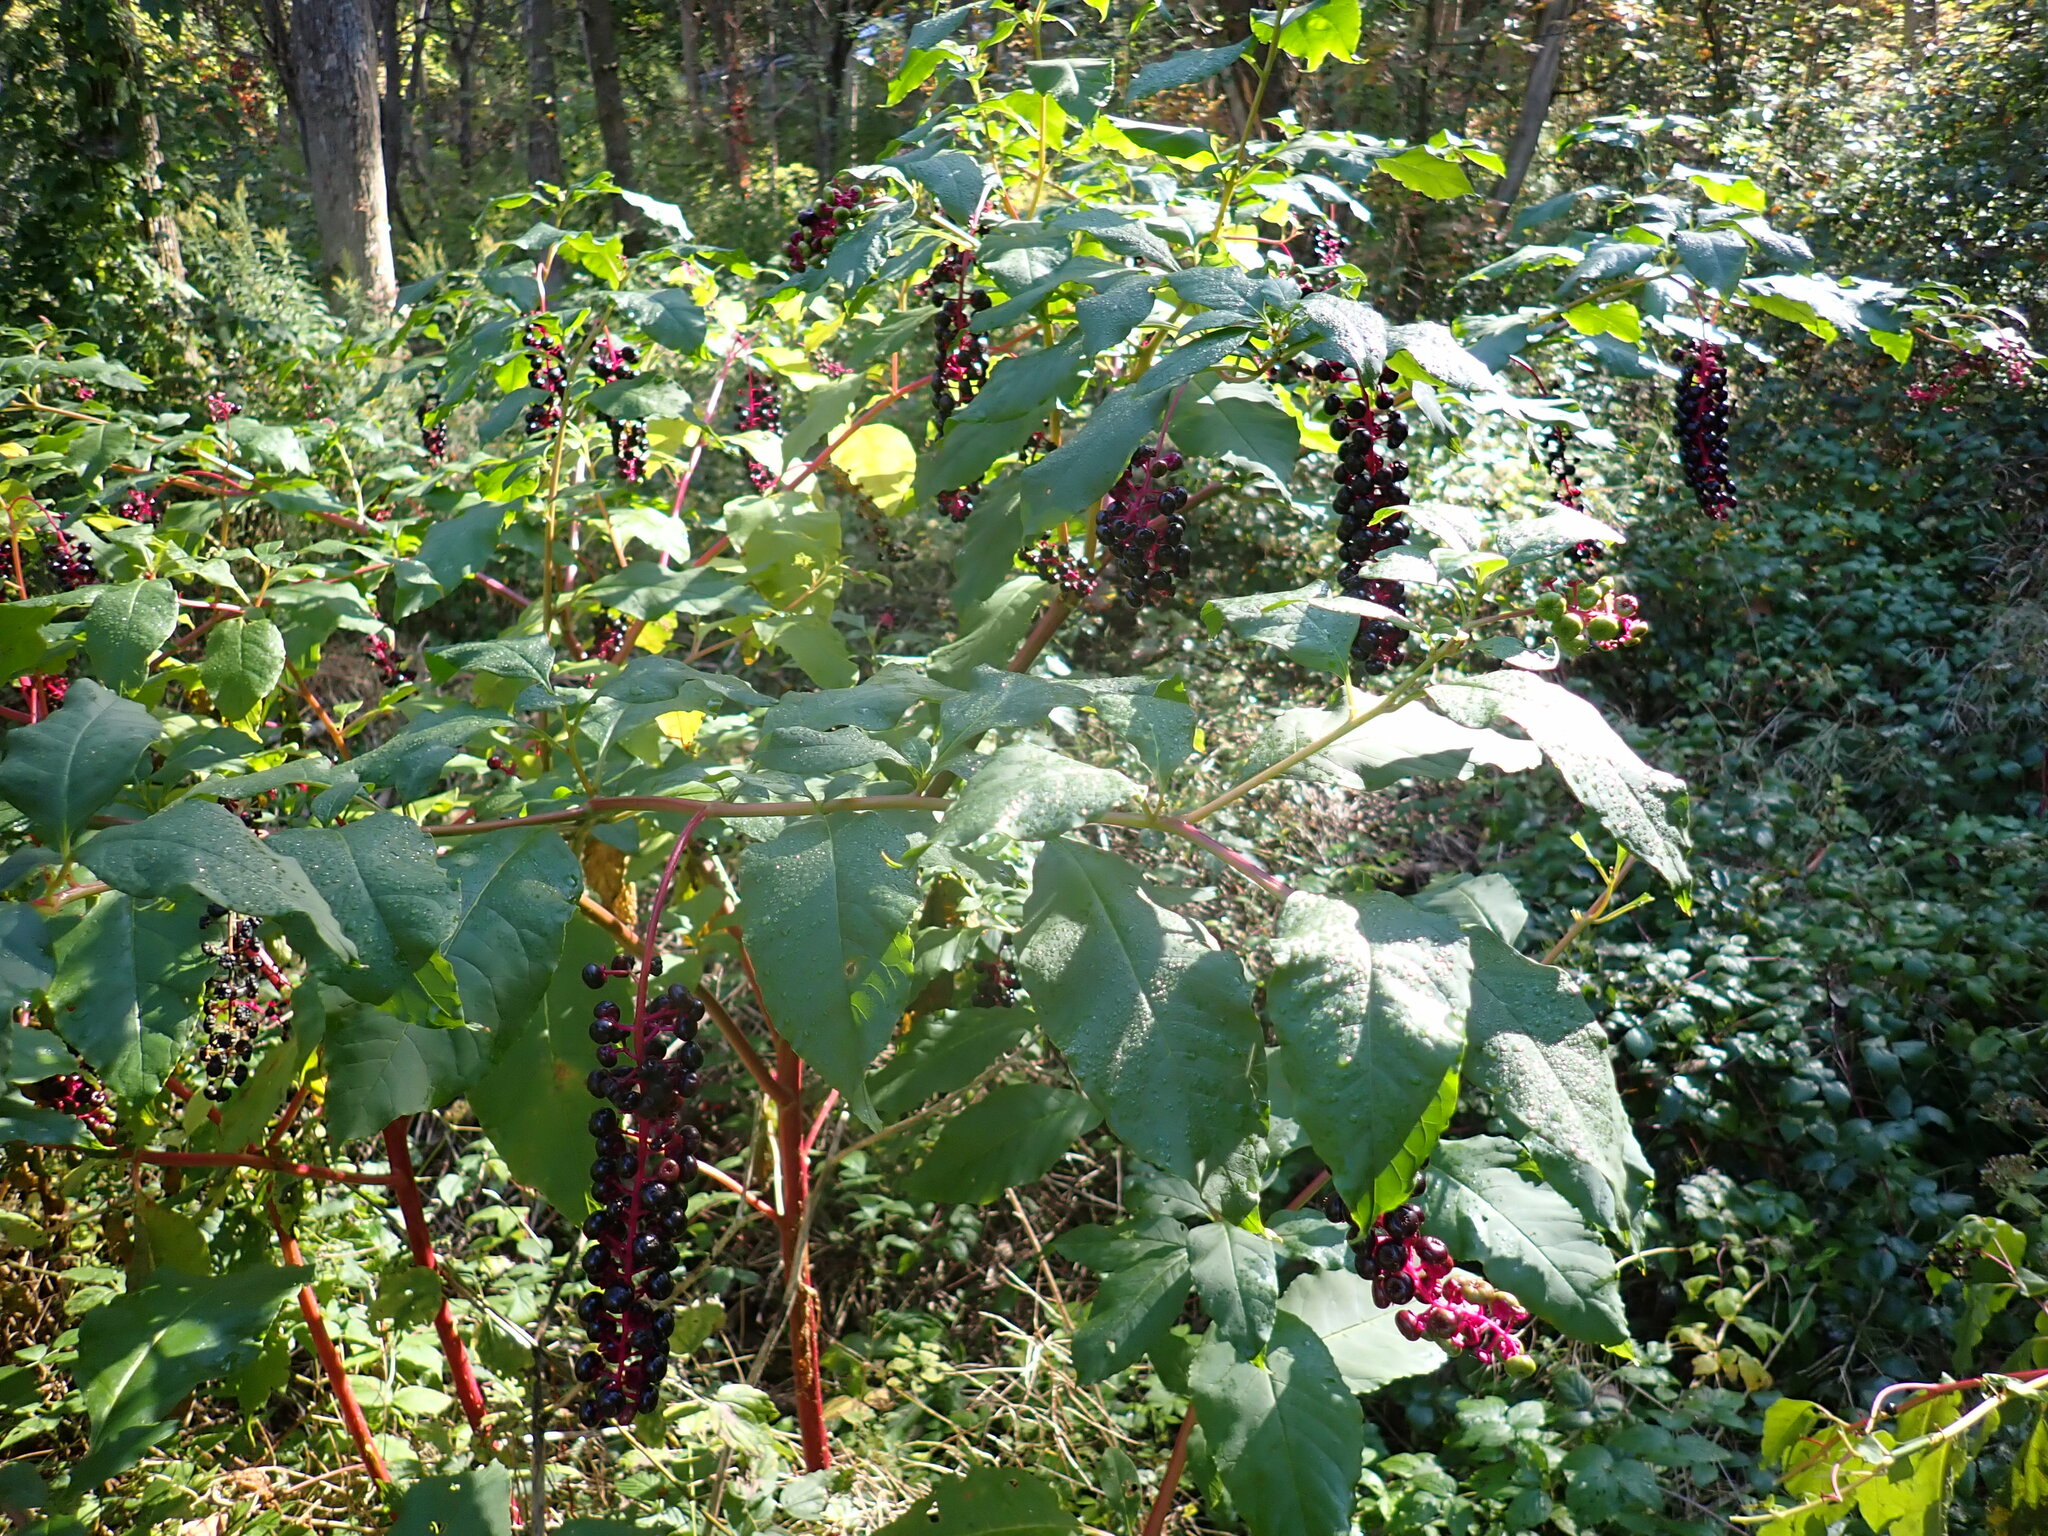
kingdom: Plantae
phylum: Tracheophyta
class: Magnoliopsida
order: Caryophyllales
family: Phytolaccaceae
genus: Phytolacca
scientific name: Phytolacca americana
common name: American pokeweed
